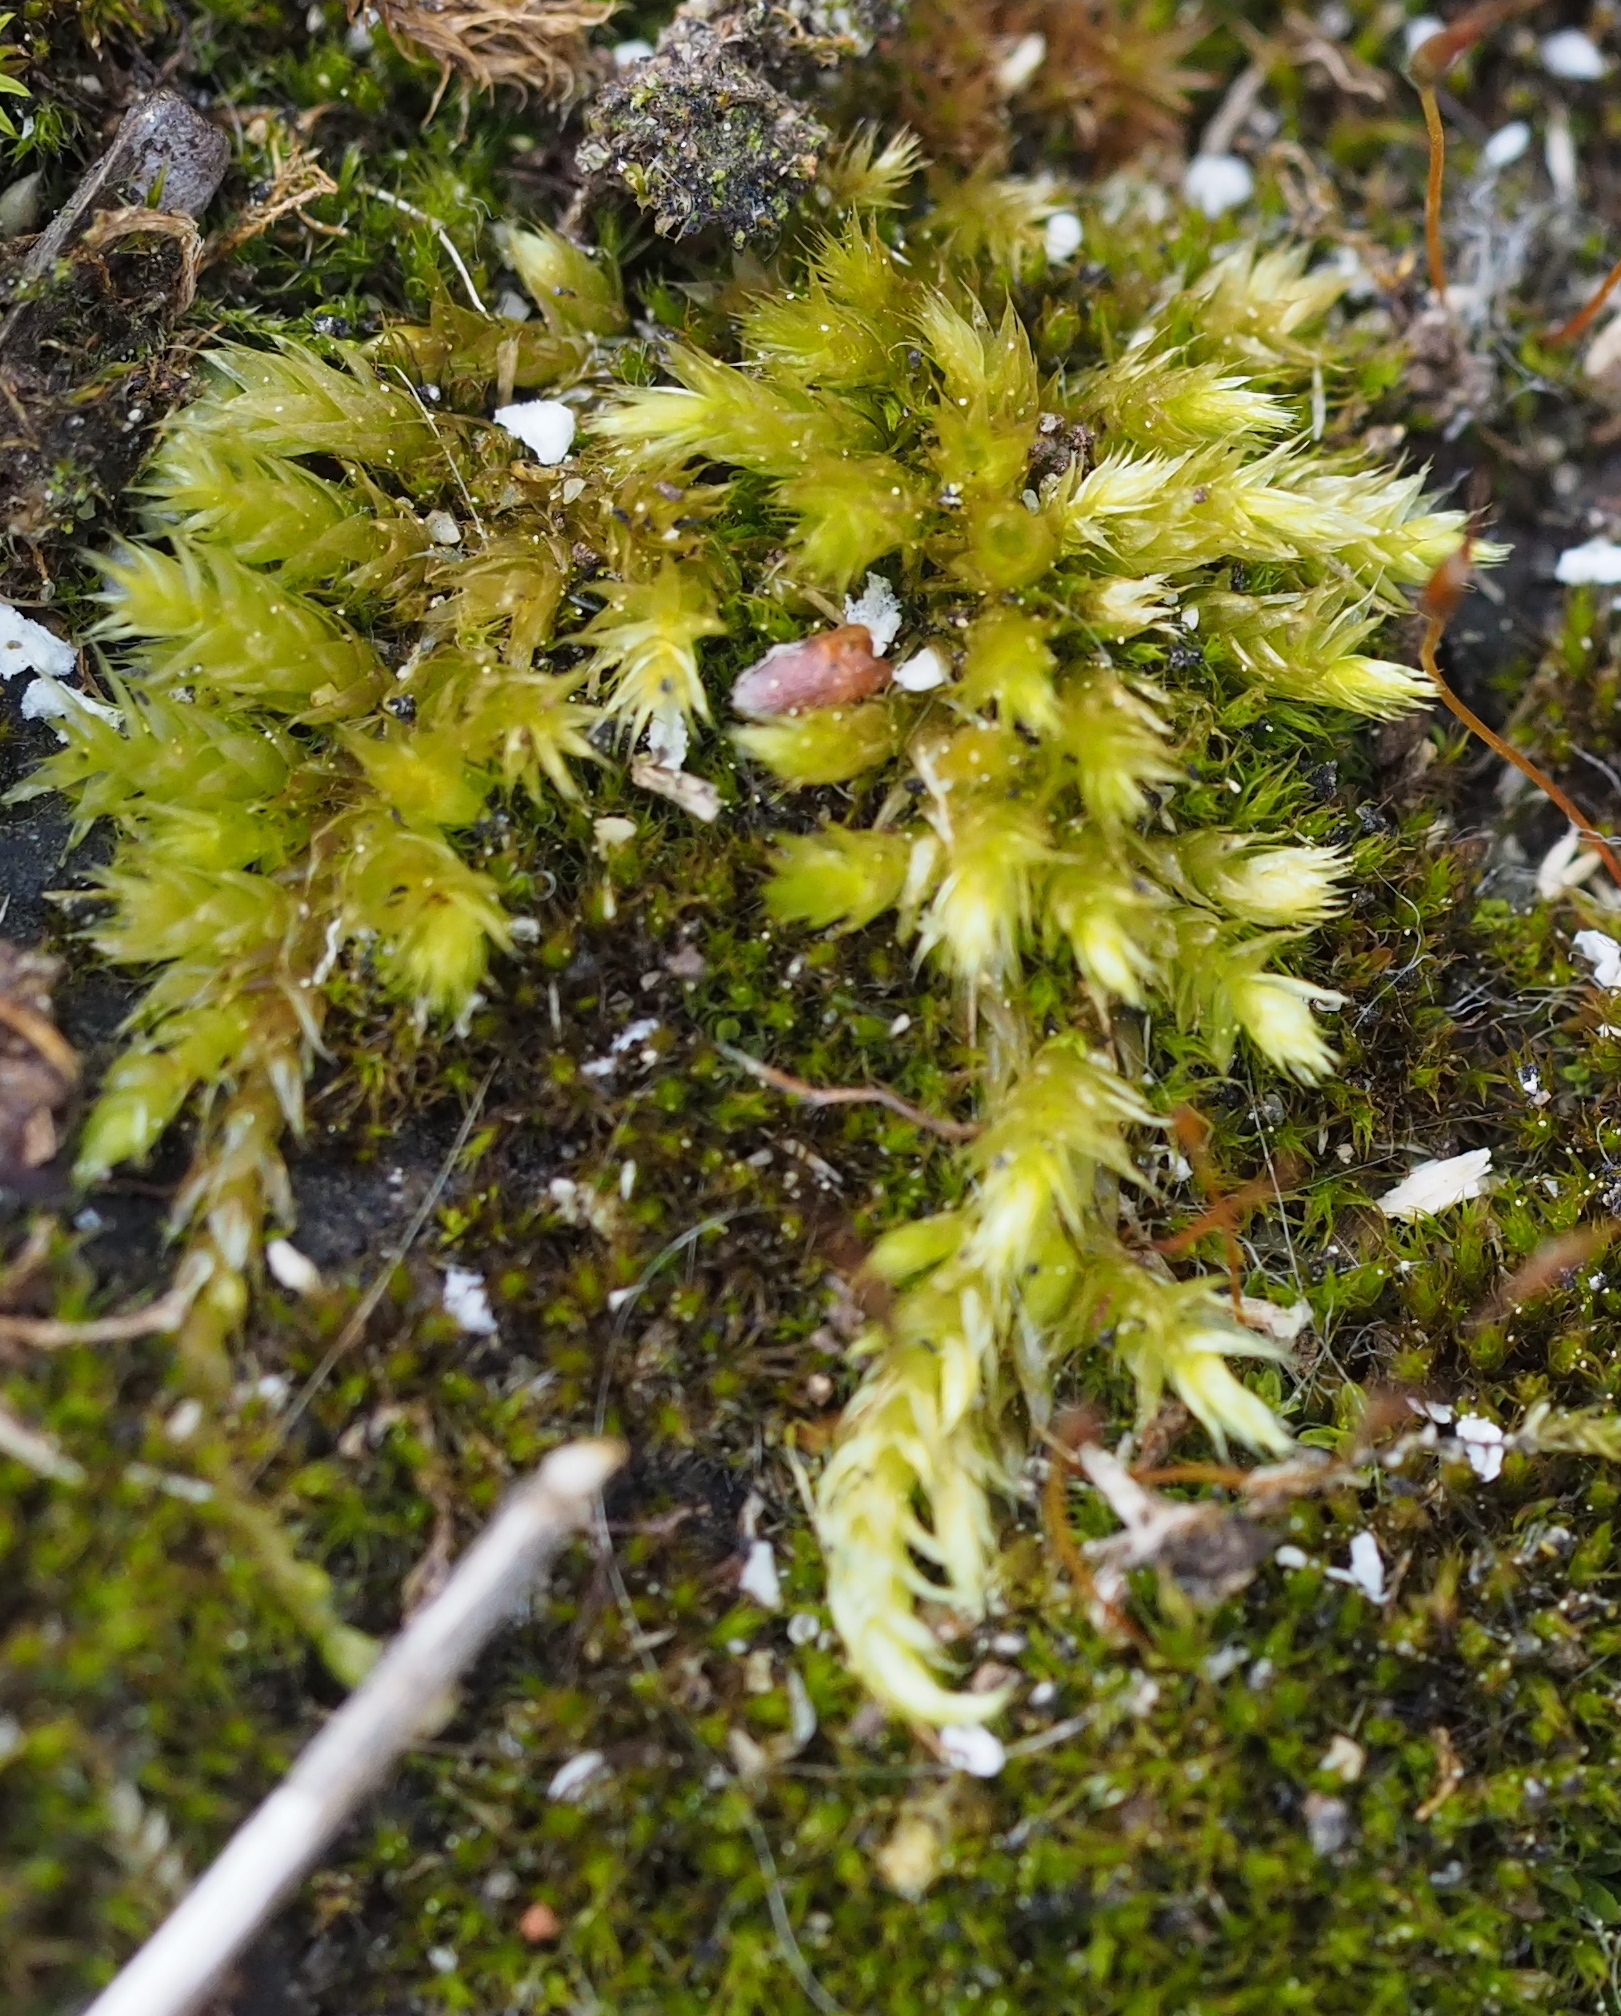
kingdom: Plantae
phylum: Bryophyta
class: Bryopsida
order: Hypnales
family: Brachytheciaceae
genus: Brachythecium
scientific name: Brachythecium rutabulum
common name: Rough-stalked feather-moss
